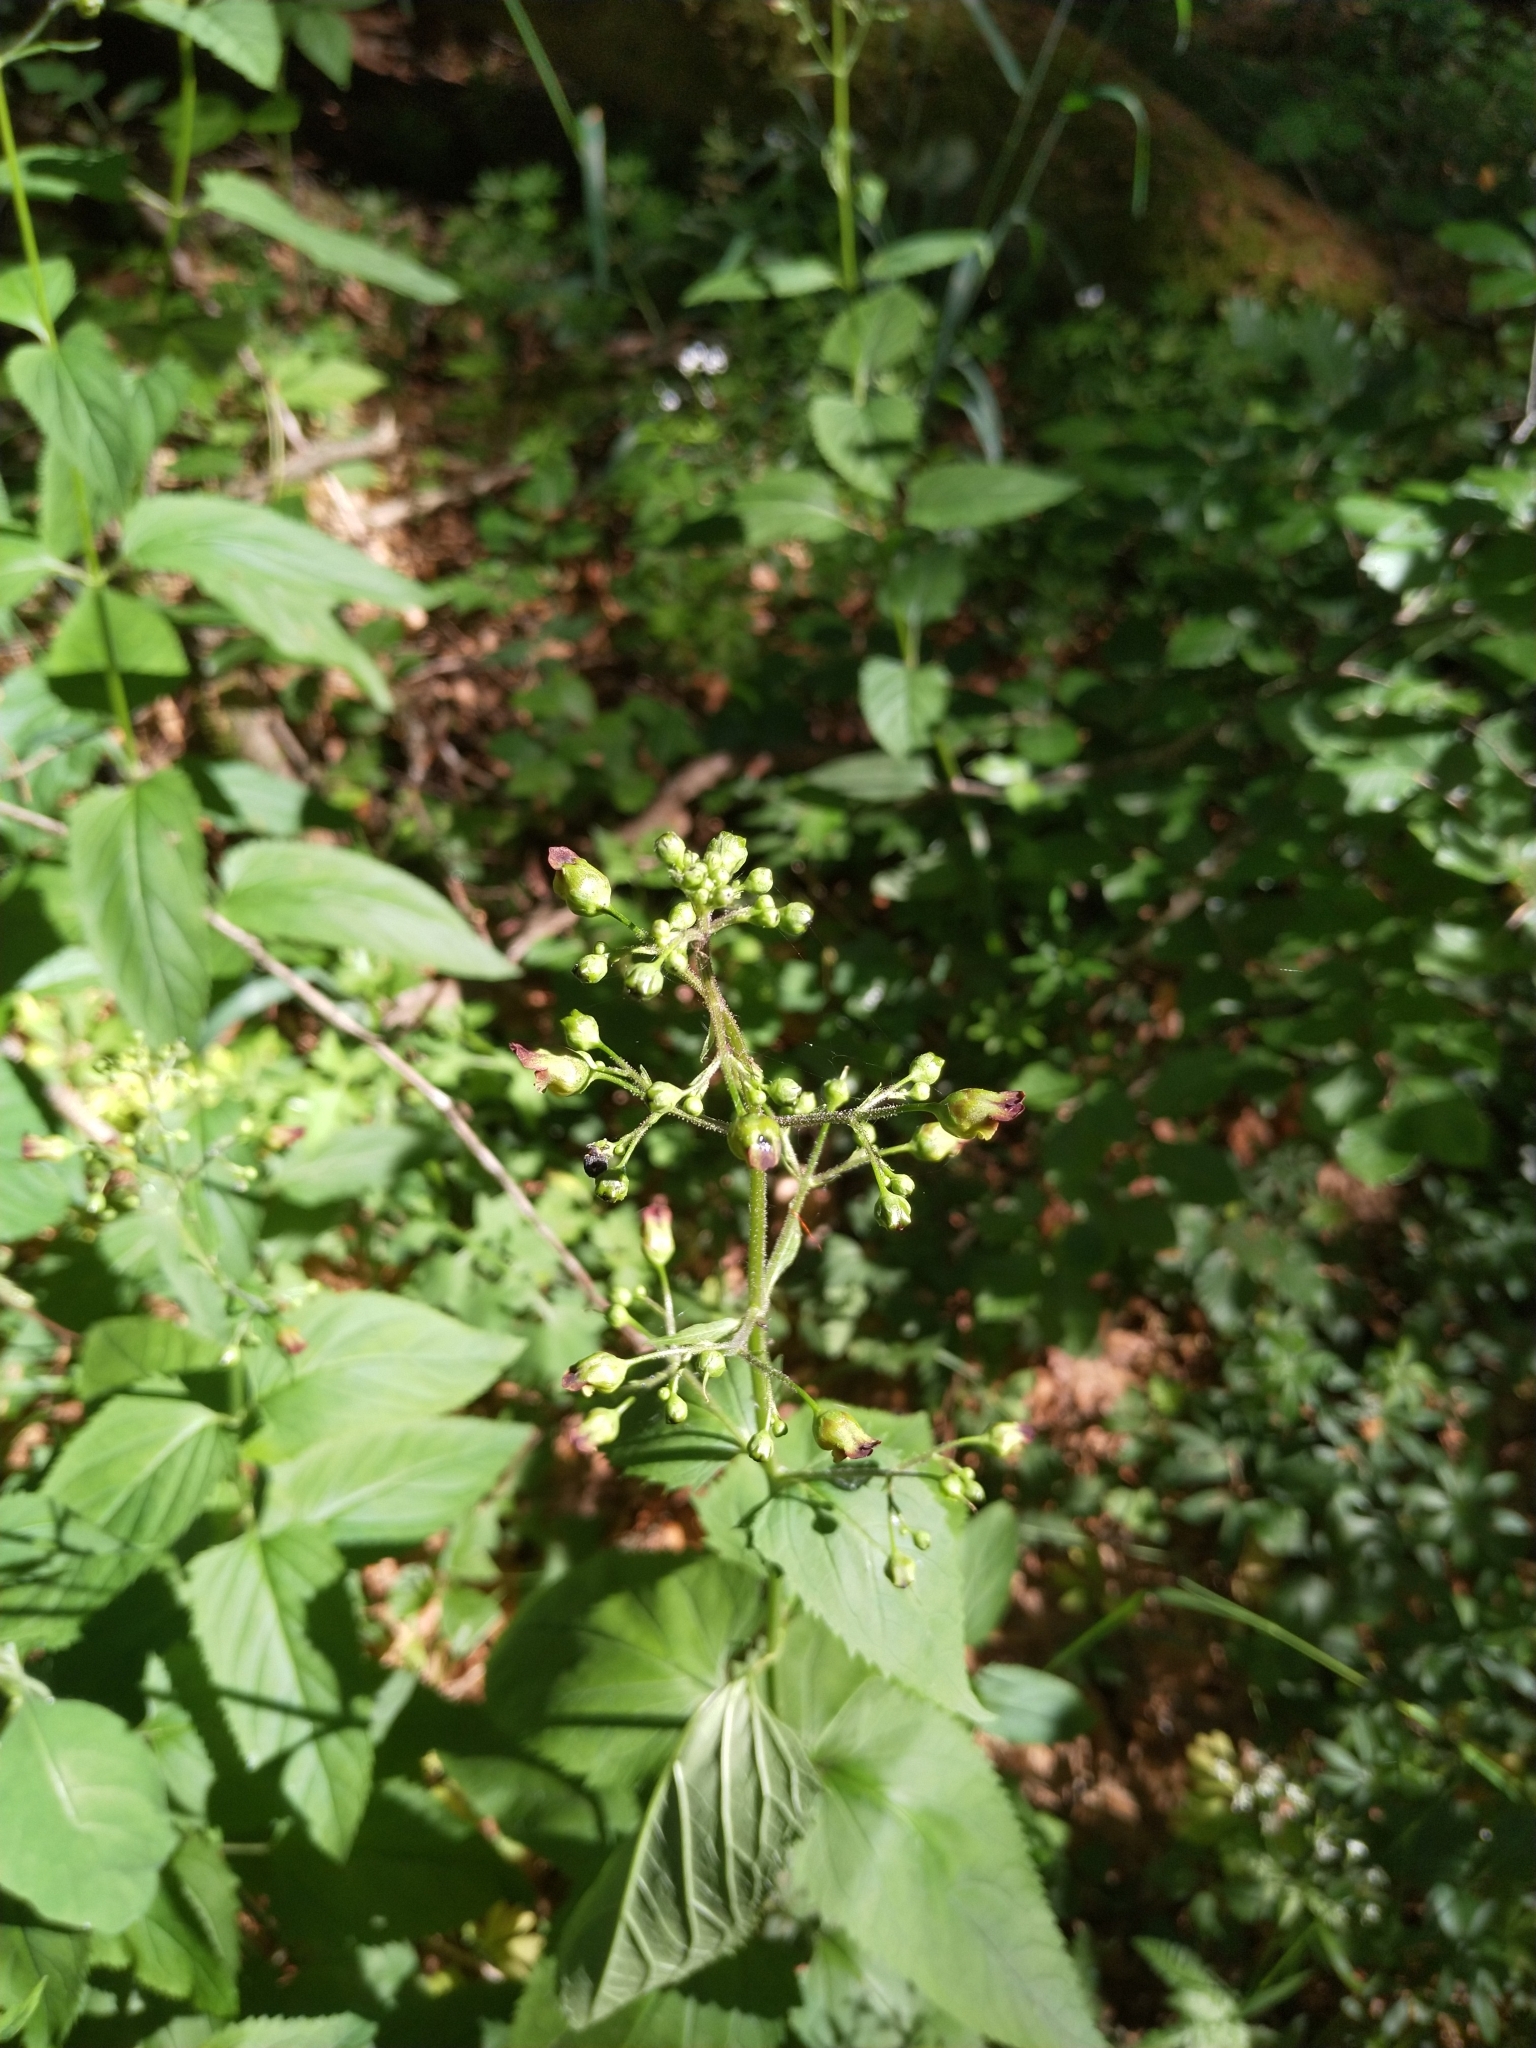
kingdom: Plantae
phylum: Tracheophyta
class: Magnoliopsida
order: Lamiales
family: Scrophulariaceae
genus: Scrophularia
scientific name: Scrophularia nodosa
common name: Common figwort
